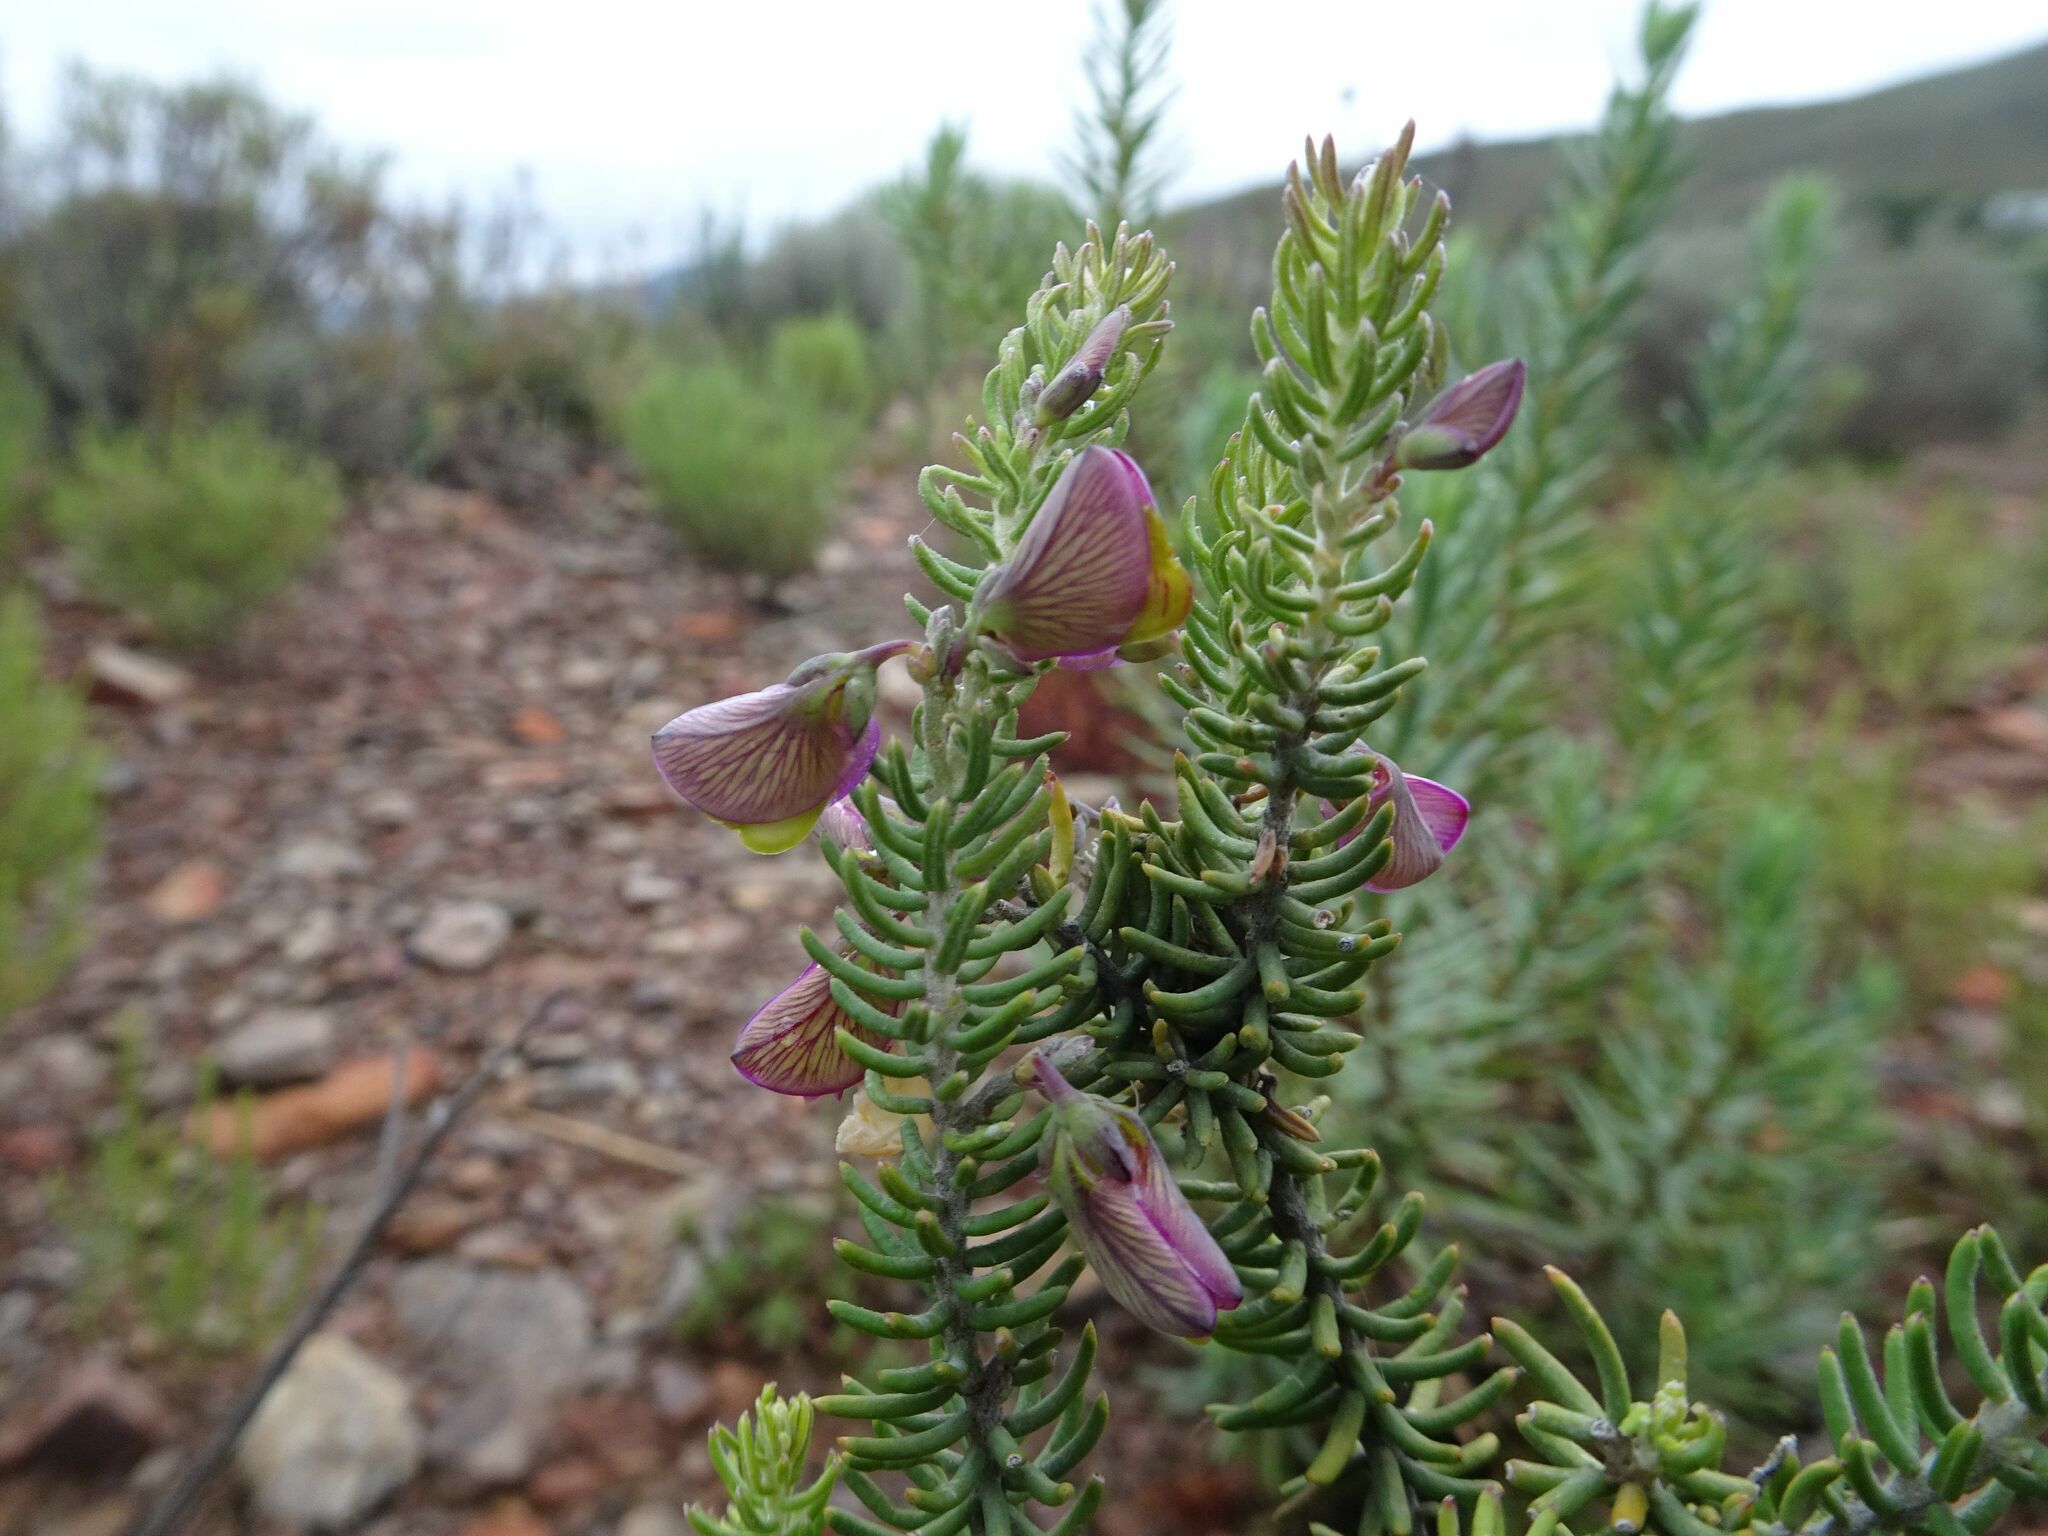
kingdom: Plantae
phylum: Tracheophyta
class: Magnoliopsida
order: Fabales
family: Polygalaceae
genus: Polygala
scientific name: Polygala teretifolia
